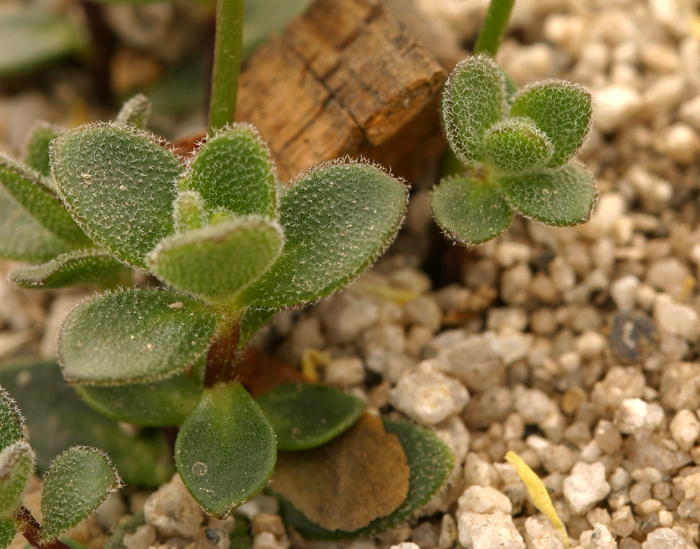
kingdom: Plantae
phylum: Tracheophyta
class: Magnoliopsida
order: Brassicales
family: Brassicaceae
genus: Draba
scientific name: Draba asterophora
